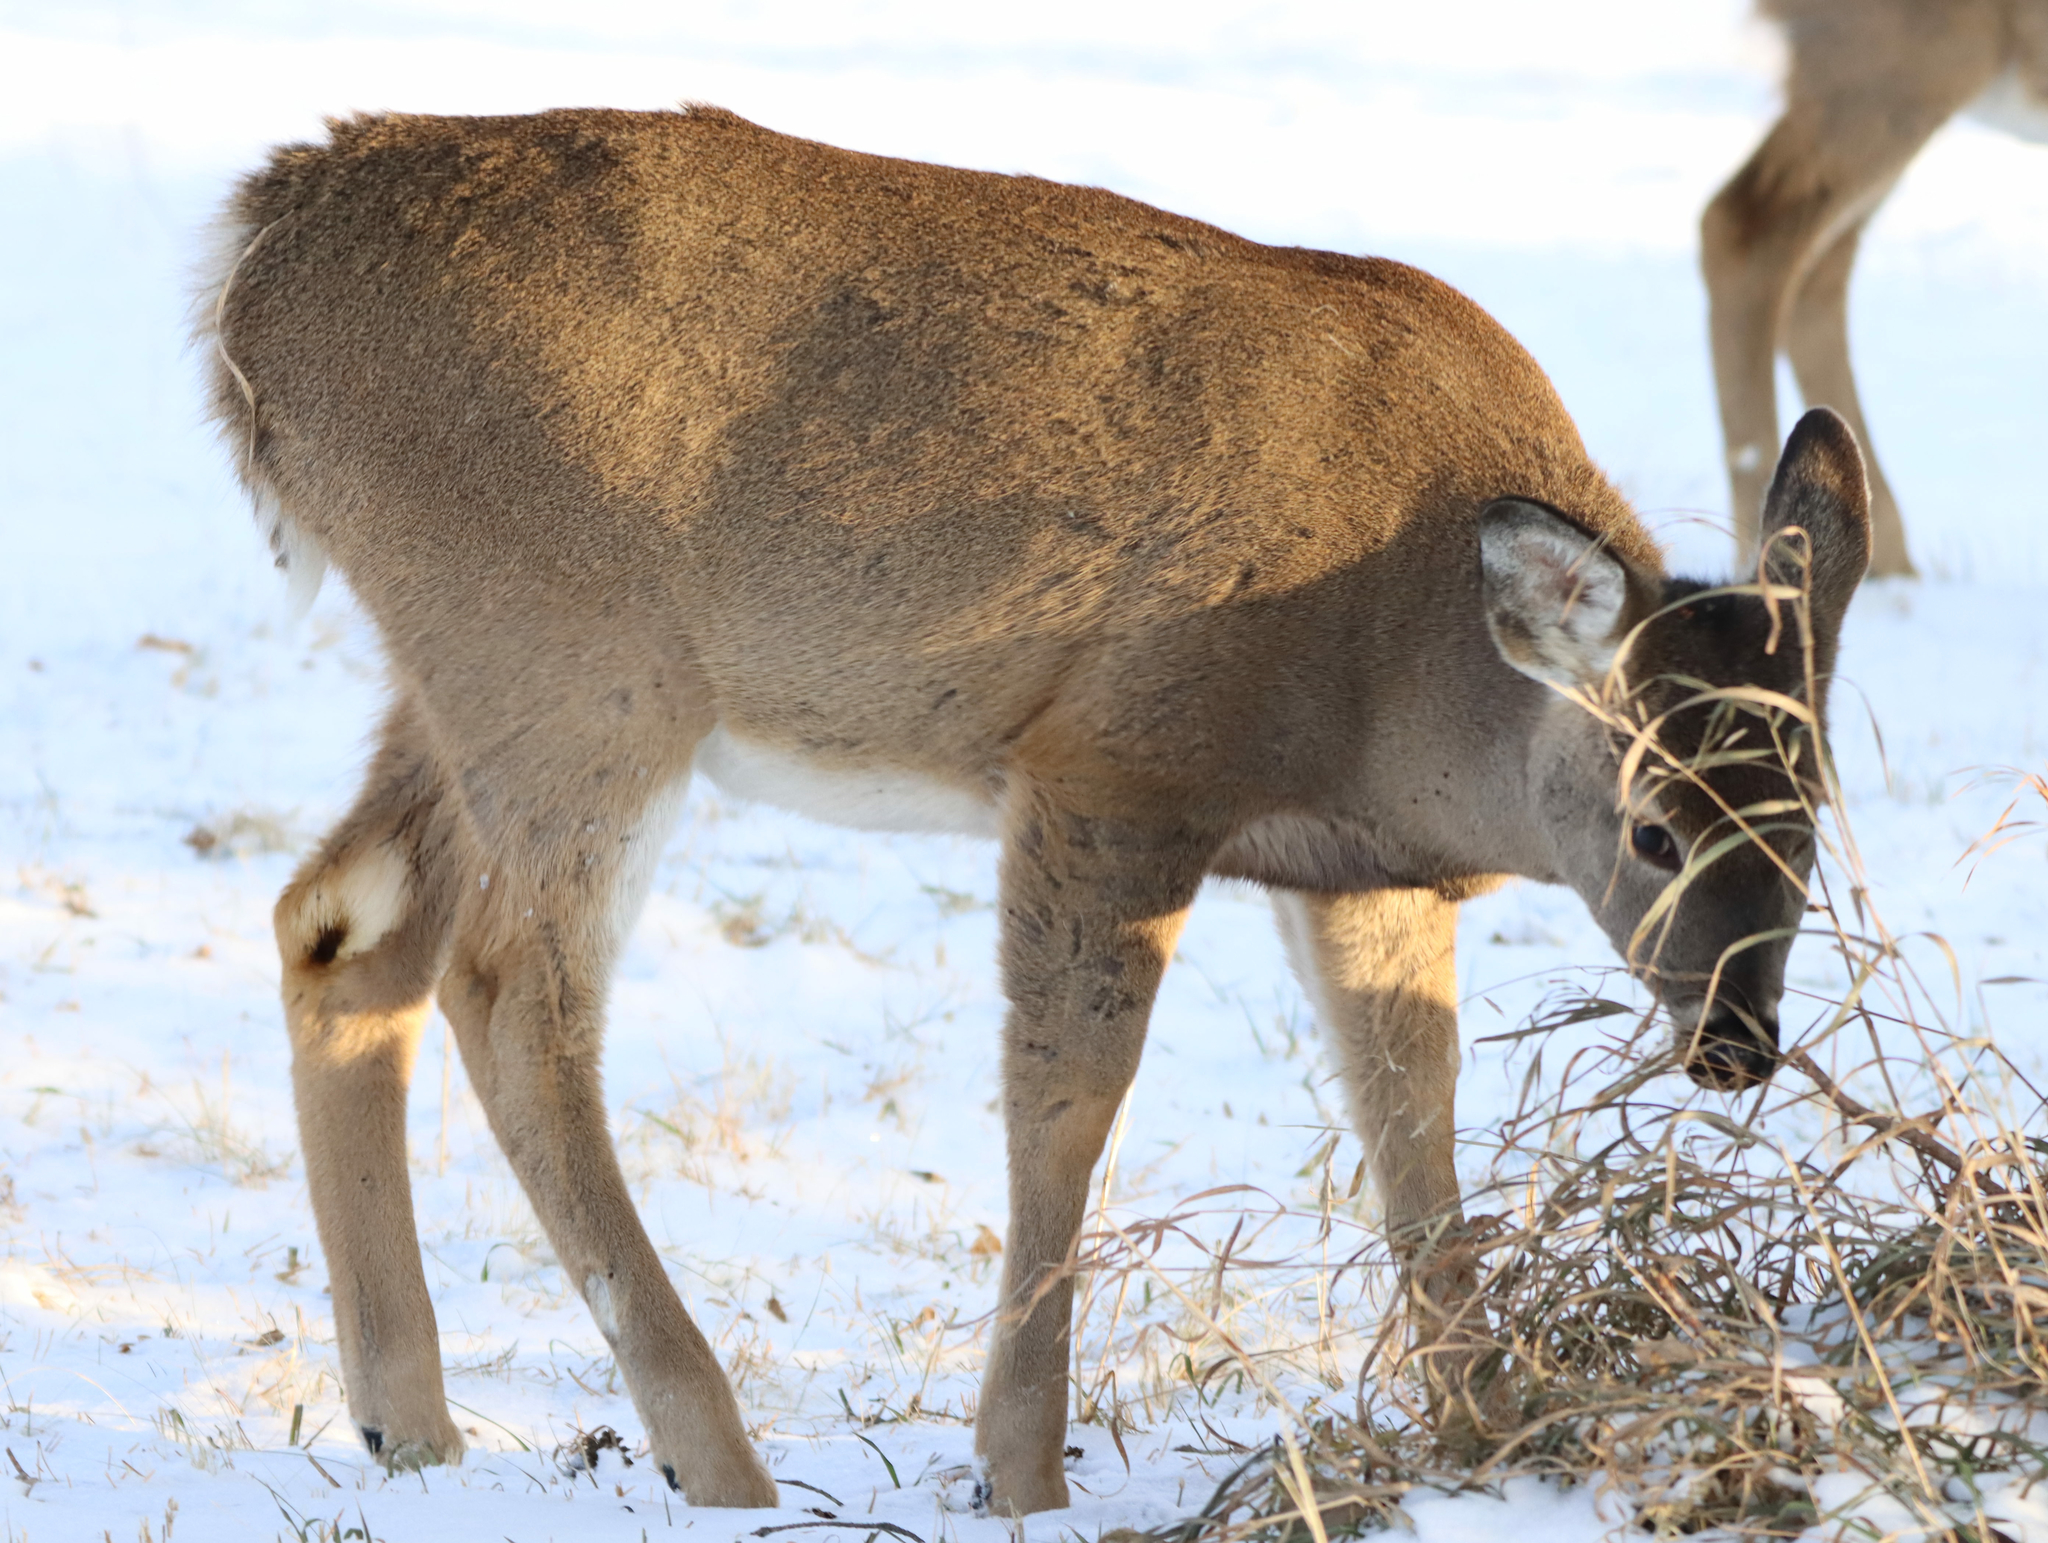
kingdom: Animalia
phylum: Chordata
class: Mammalia
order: Artiodactyla
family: Cervidae
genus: Odocoileus
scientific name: Odocoileus virginianus
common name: White-tailed deer
